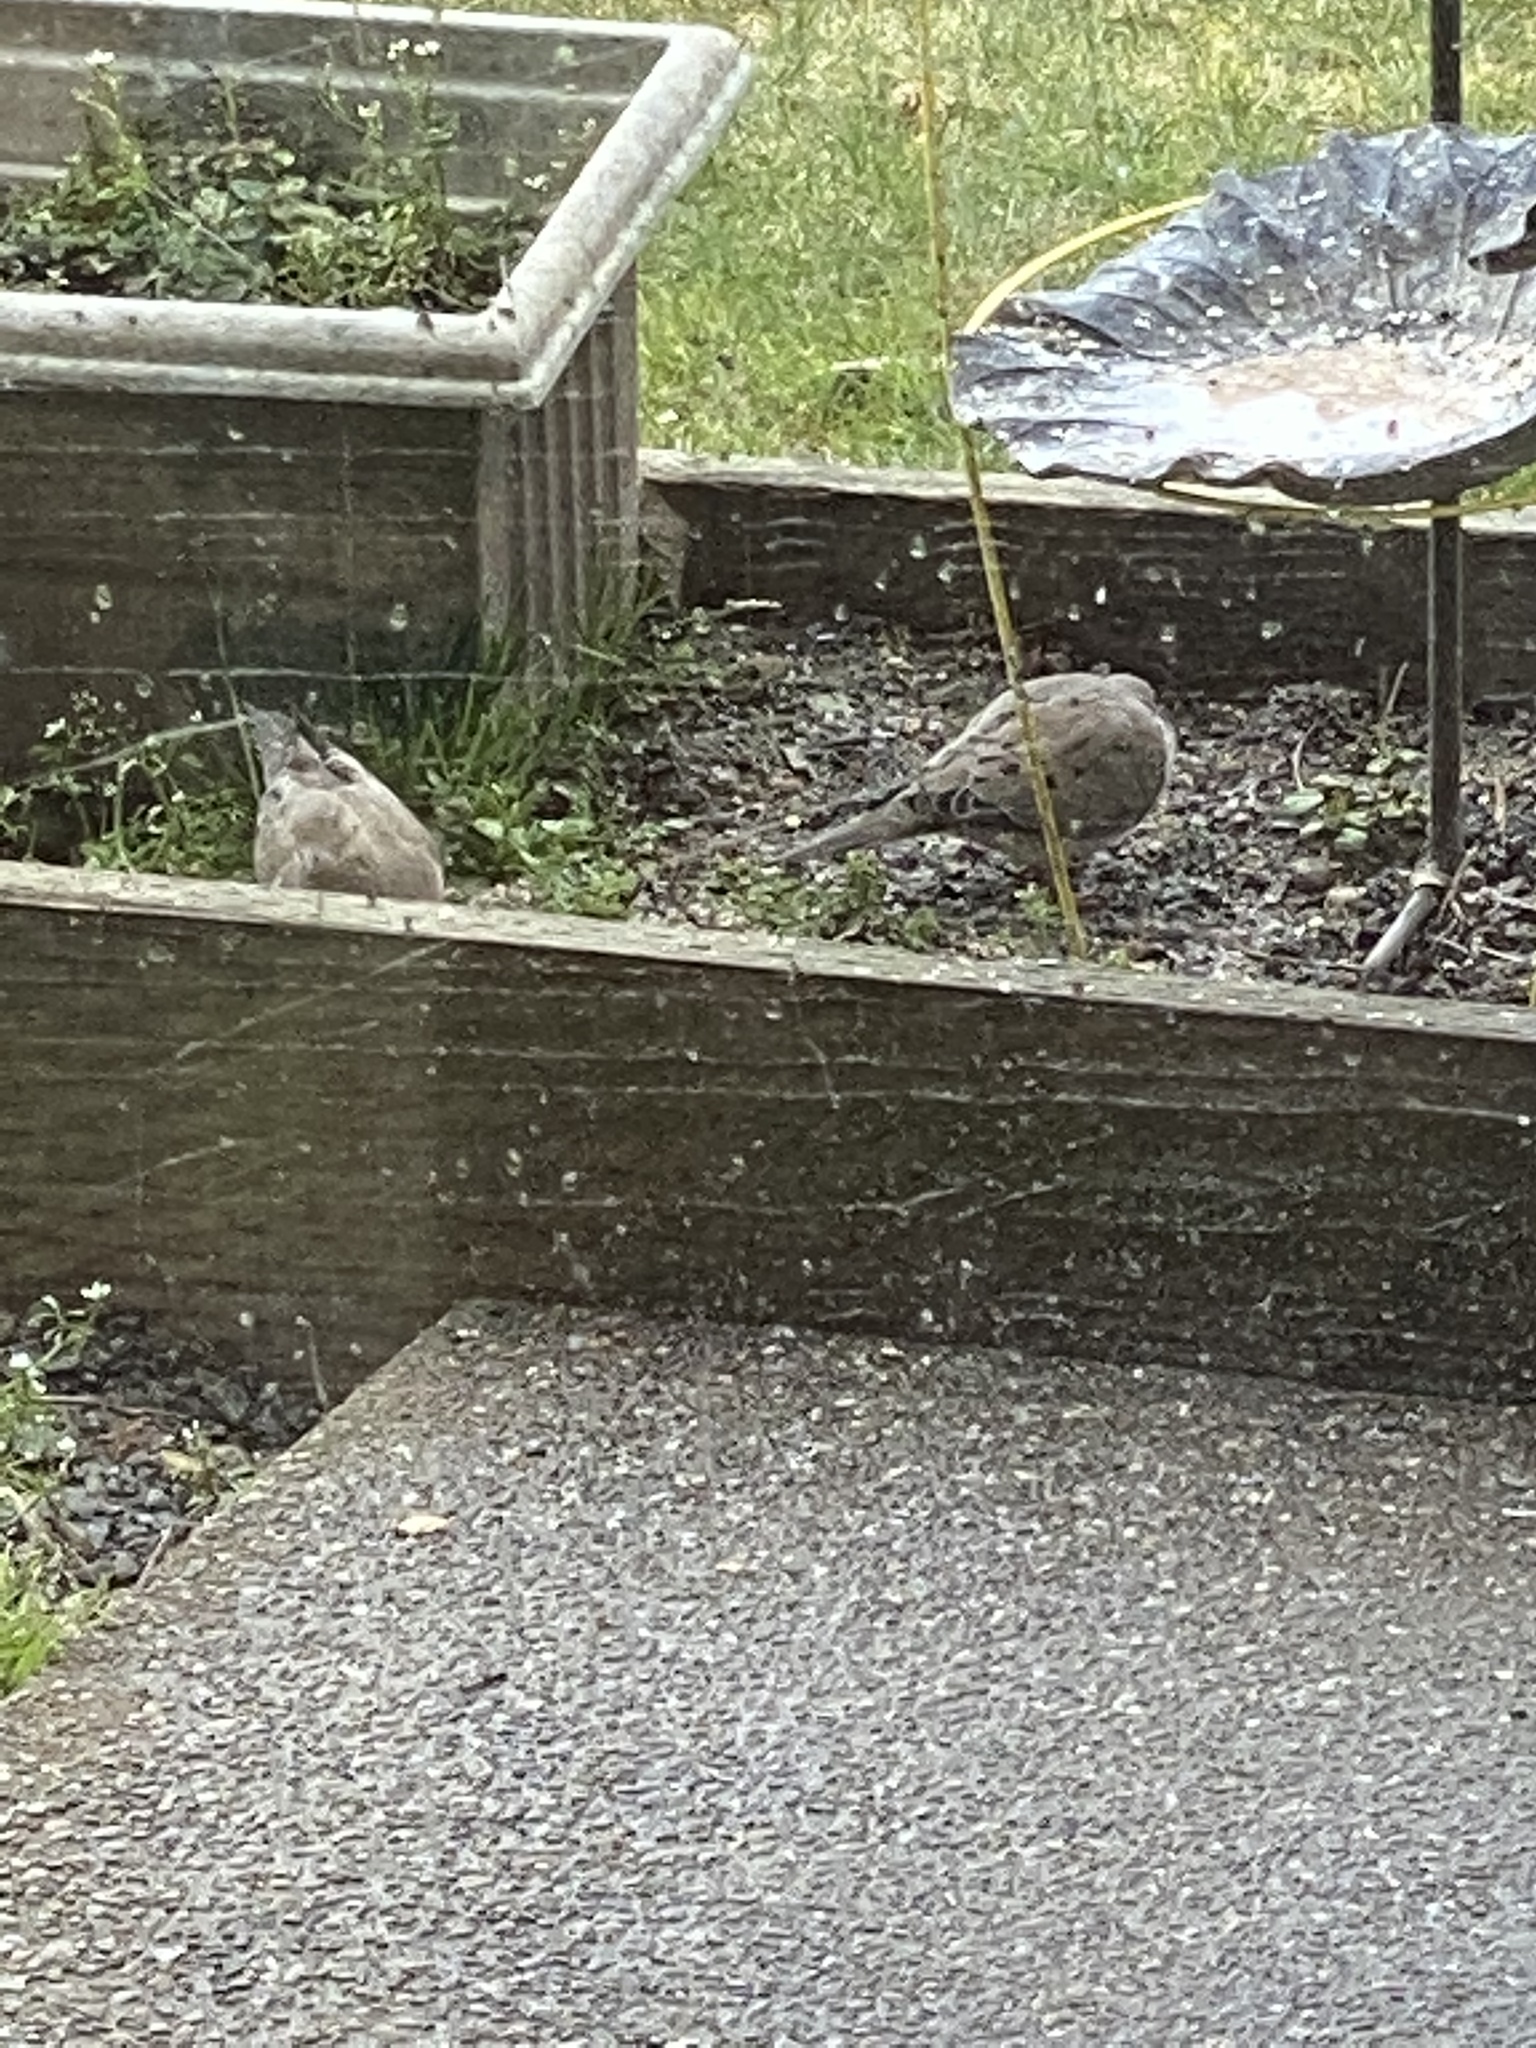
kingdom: Animalia
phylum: Chordata
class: Aves
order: Columbiformes
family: Columbidae
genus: Zenaida
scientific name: Zenaida macroura
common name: Mourning dove
